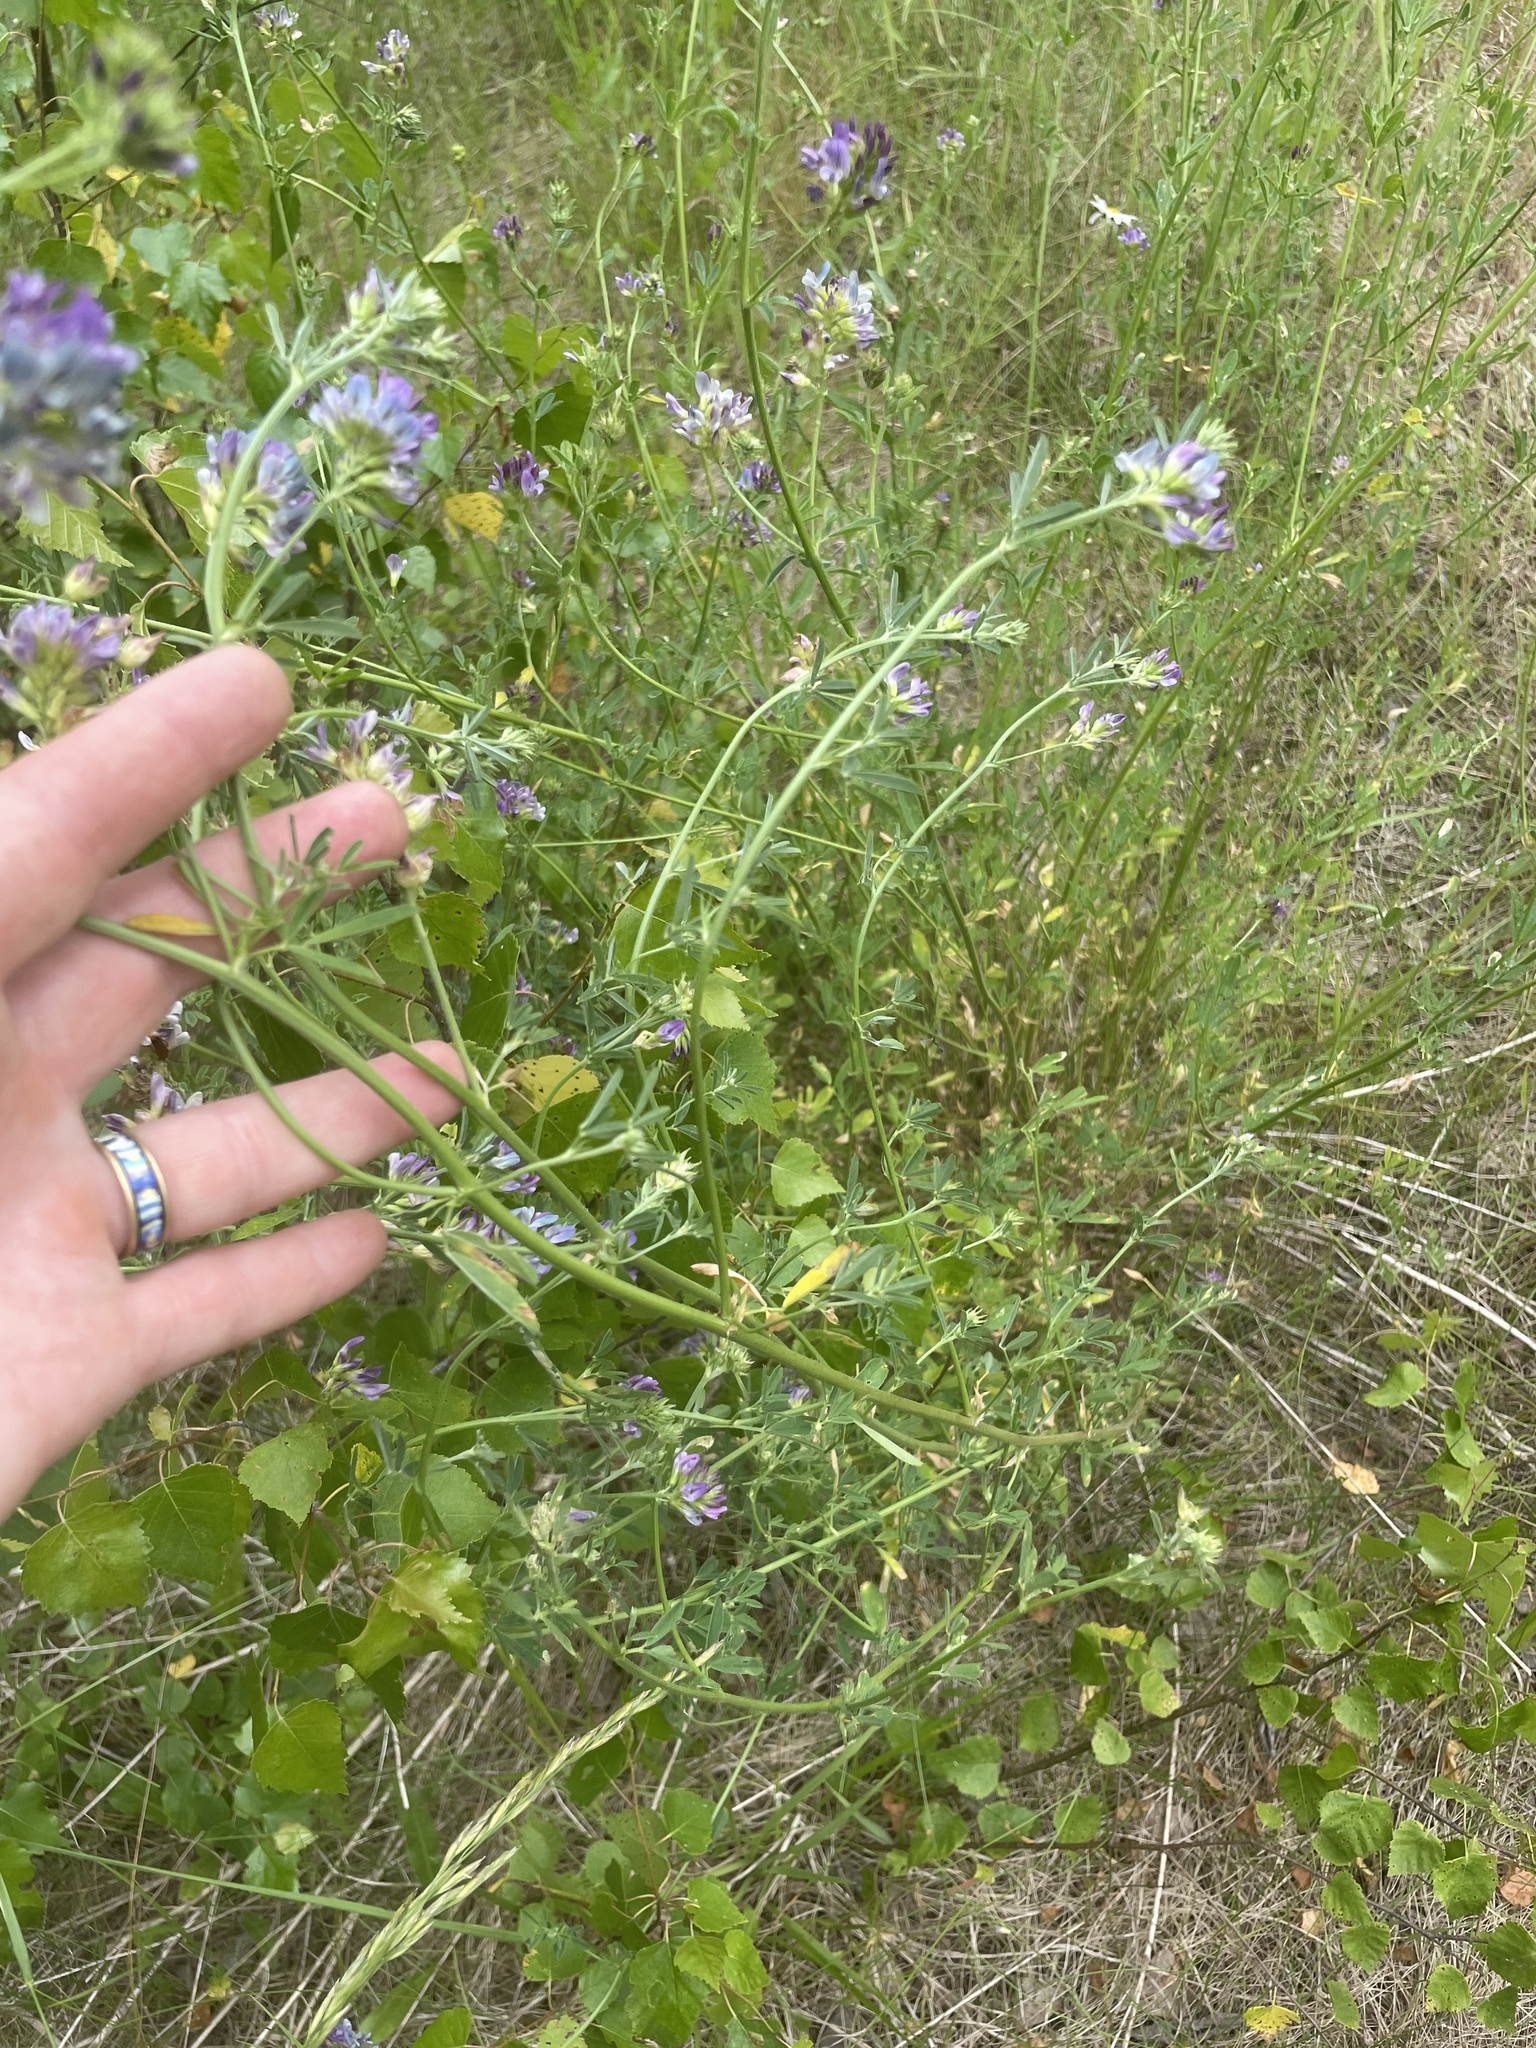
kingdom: Plantae
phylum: Tracheophyta
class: Magnoliopsida
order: Fabales
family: Fabaceae
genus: Medicago
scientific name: Medicago sativa
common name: Alfalfa
